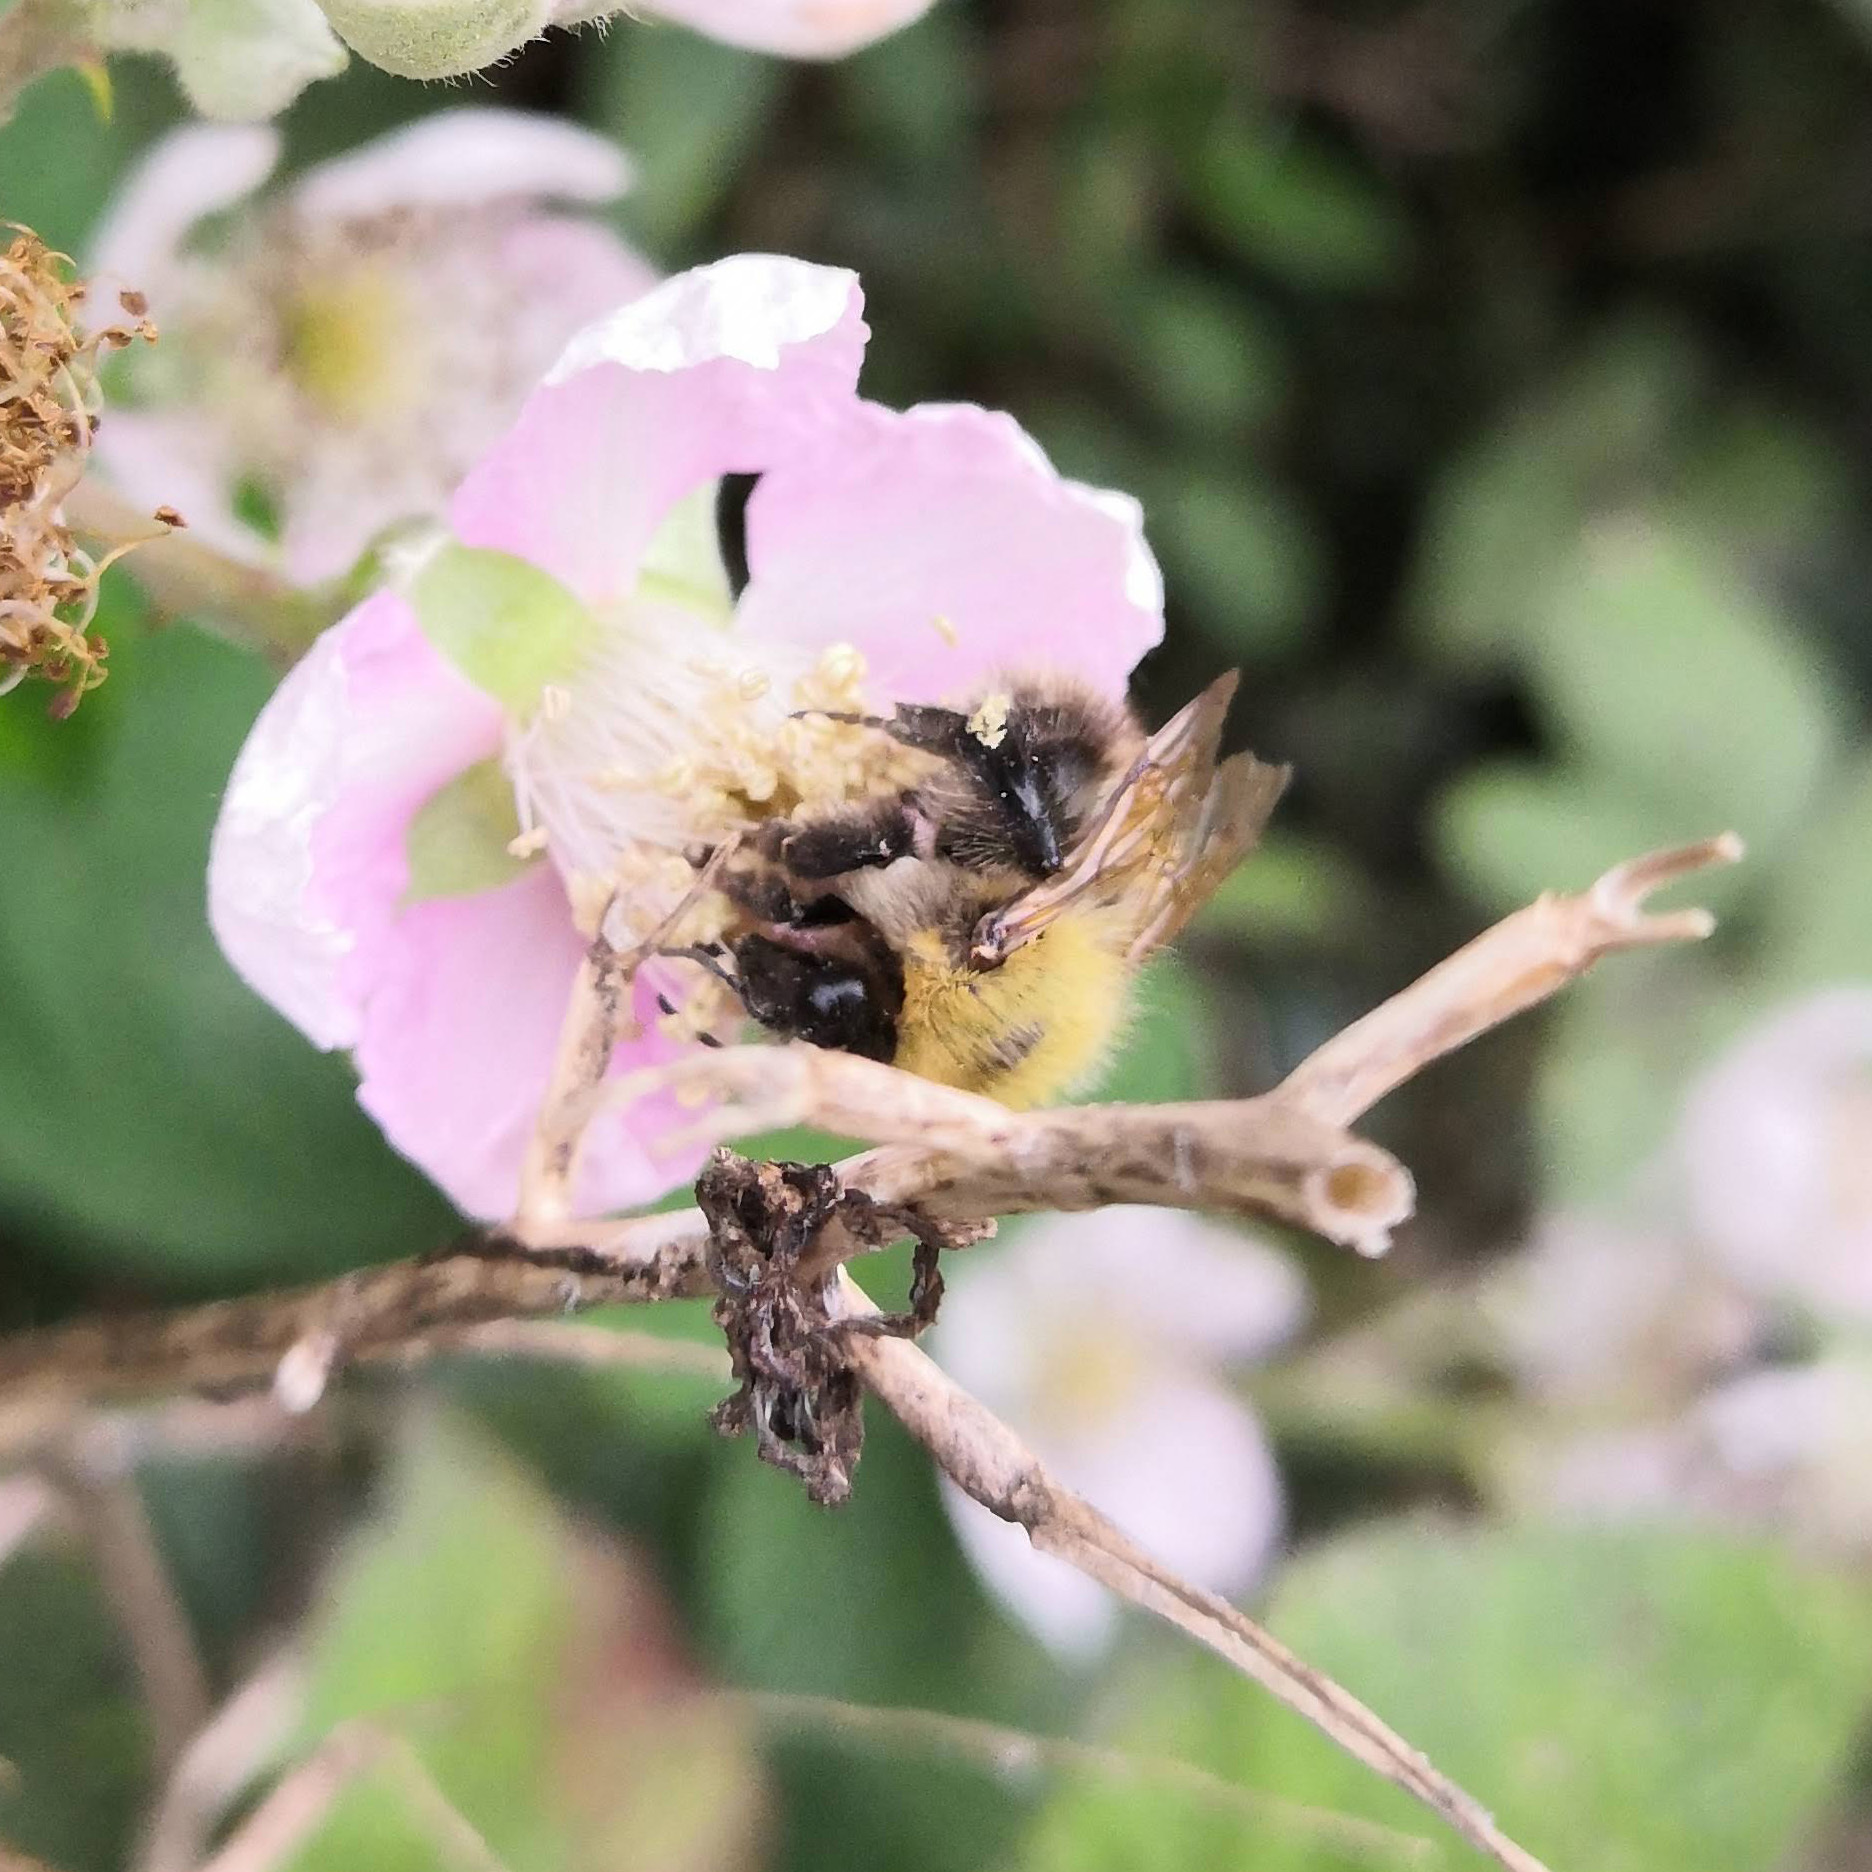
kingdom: Animalia
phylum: Arthropoda
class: Insecta
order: Hymenoptera
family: Apidae
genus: Bombus
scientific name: Bombus pascuorum
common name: Common carder bee
